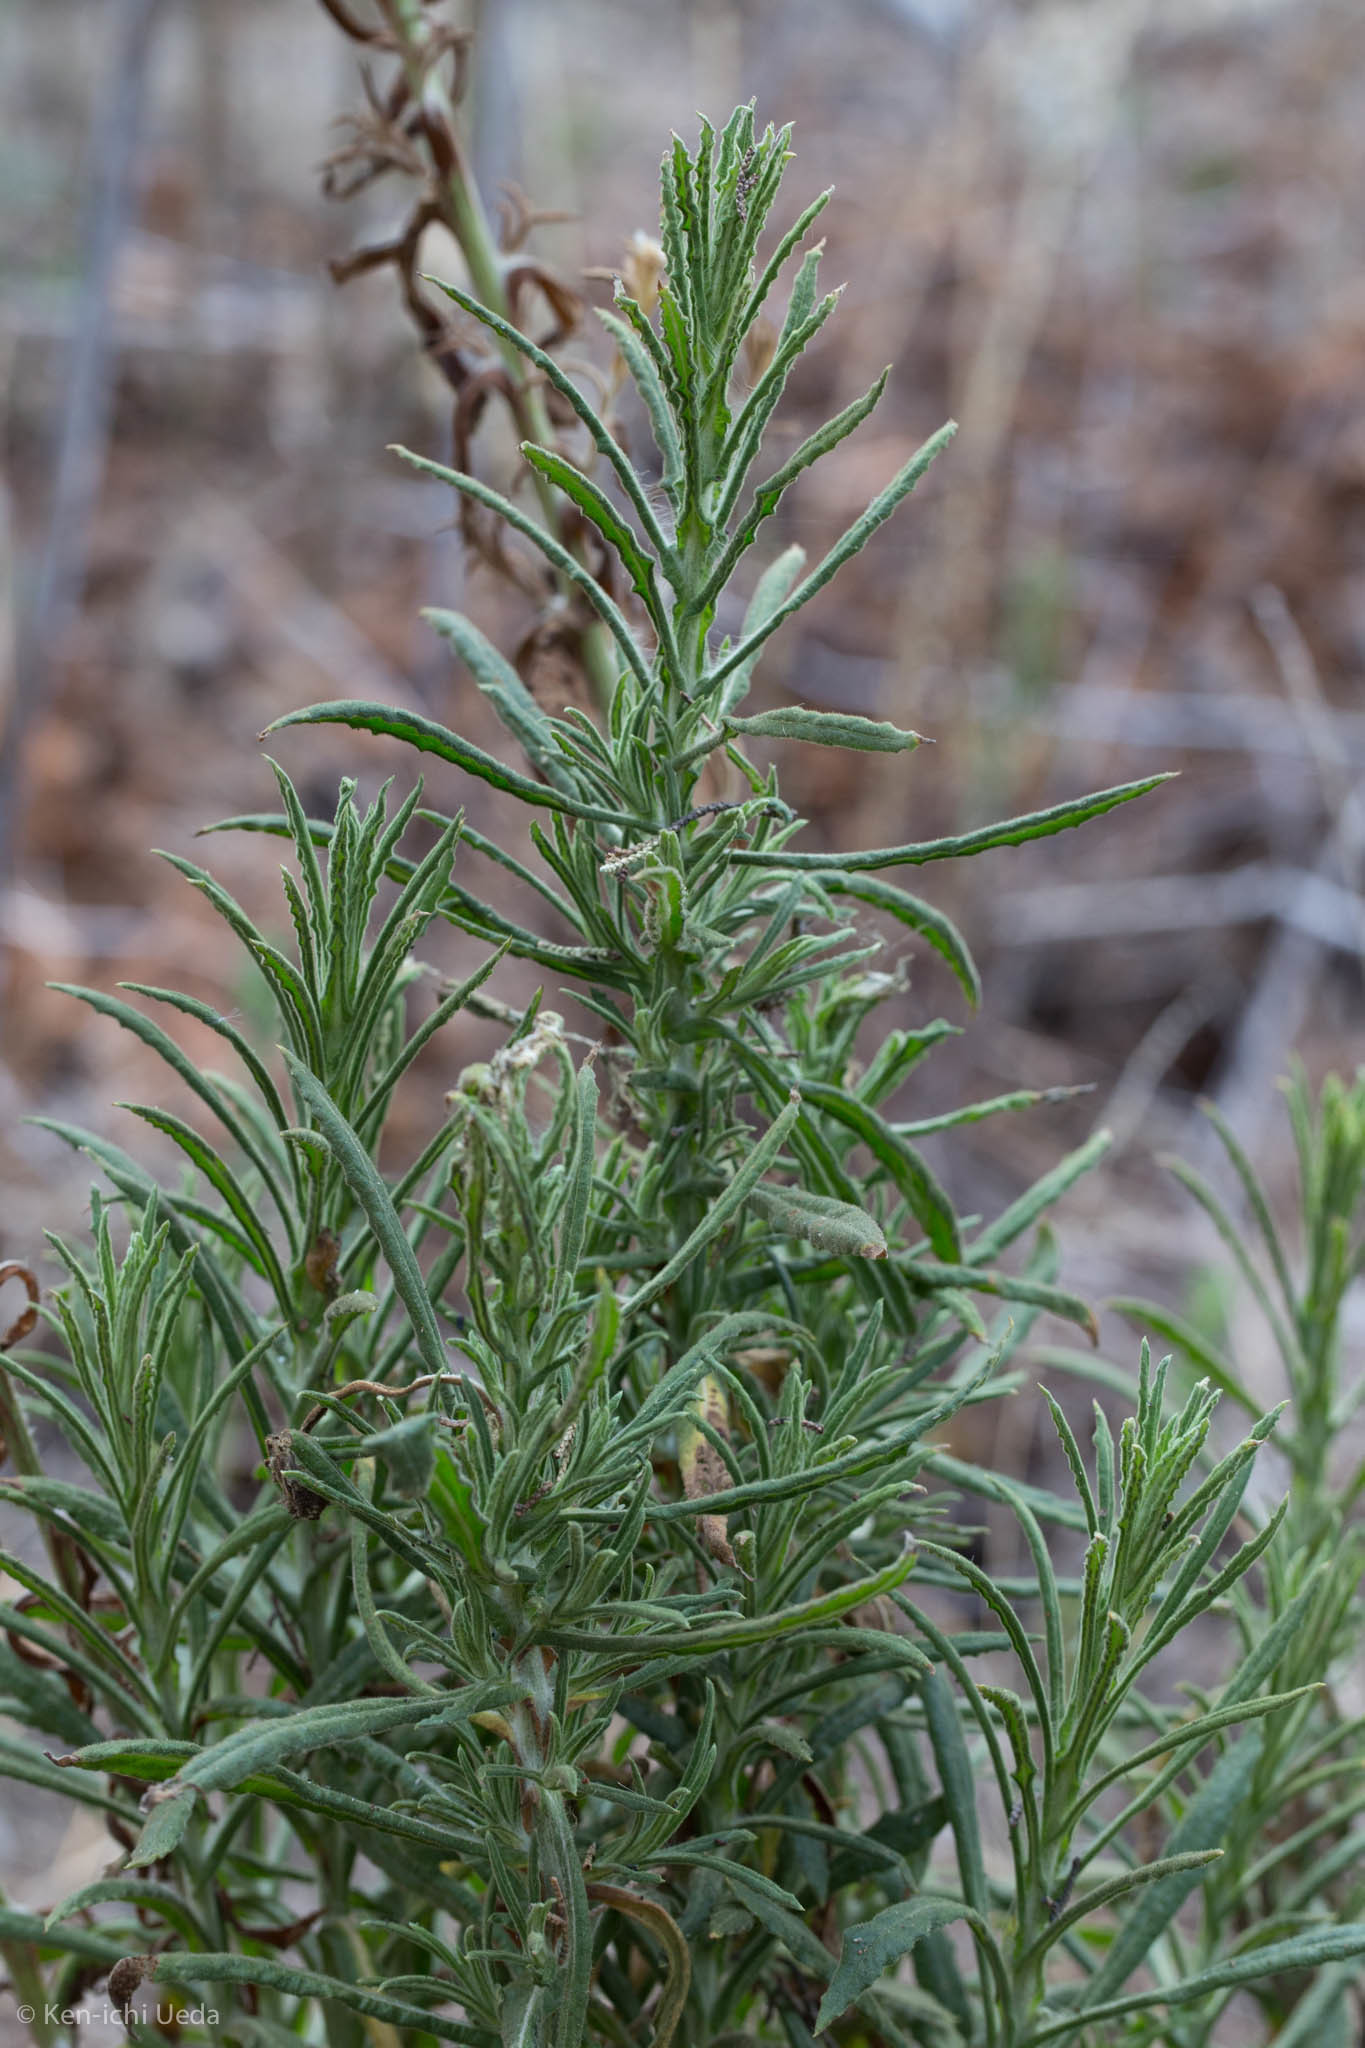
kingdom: Plantae
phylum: Tracheophyta
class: Magnoliopsida
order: Asterales
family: Asteraceae
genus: Pseudognaphalium
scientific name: Pseudognaphalium ramosissimum
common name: Pink rabbit-tobacco
